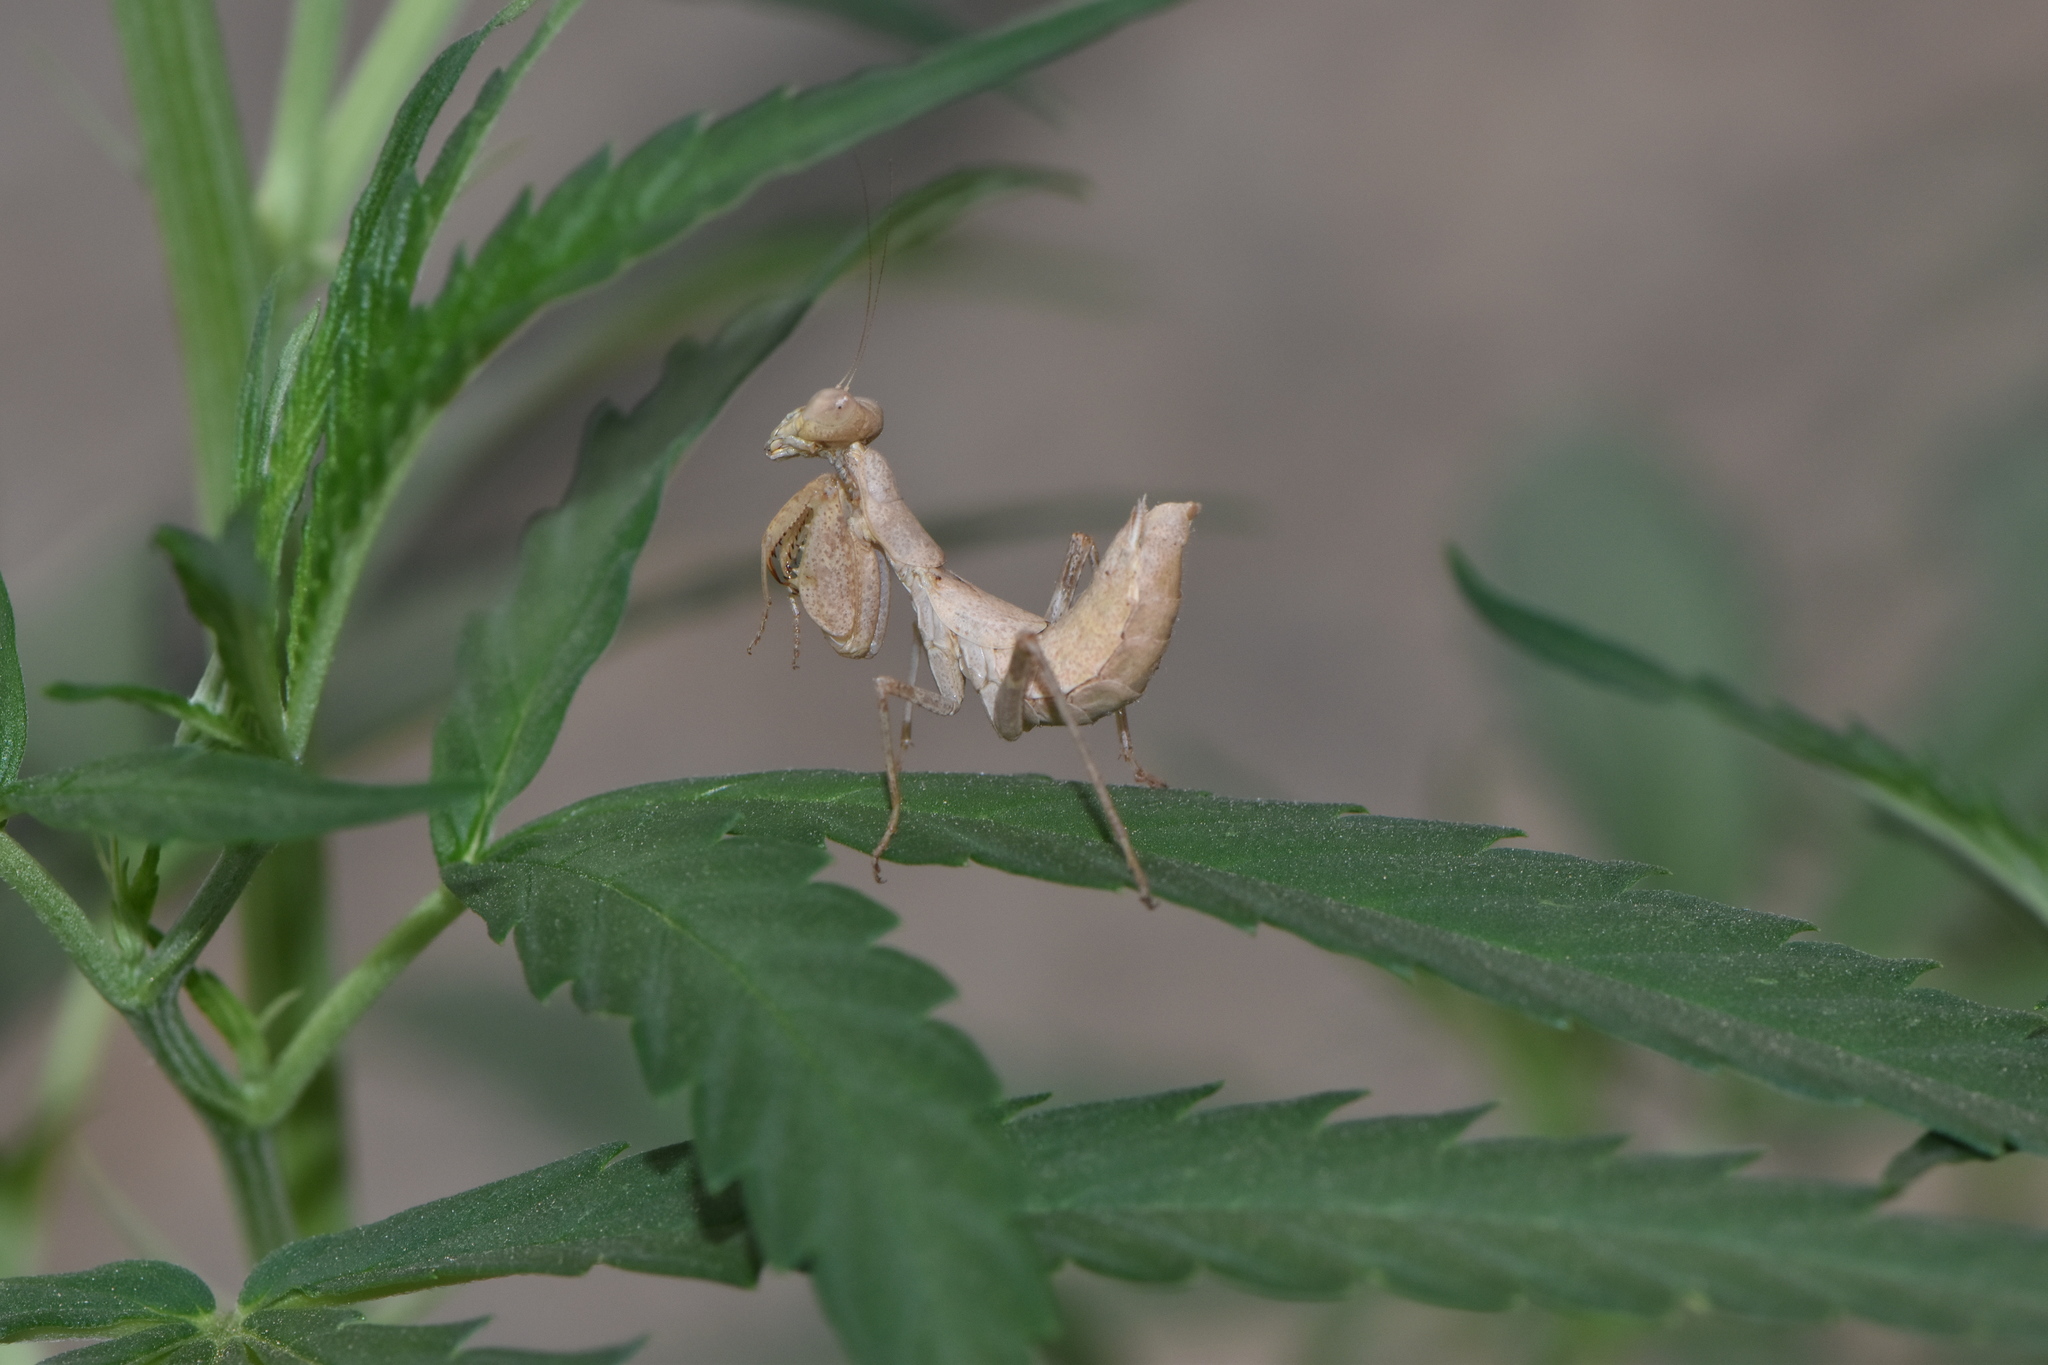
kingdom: Animalia
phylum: Arthropoda
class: Insecta
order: Mantodea
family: Amelidae
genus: Ameles
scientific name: Ameles spallanzania
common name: European dwarf mantis
